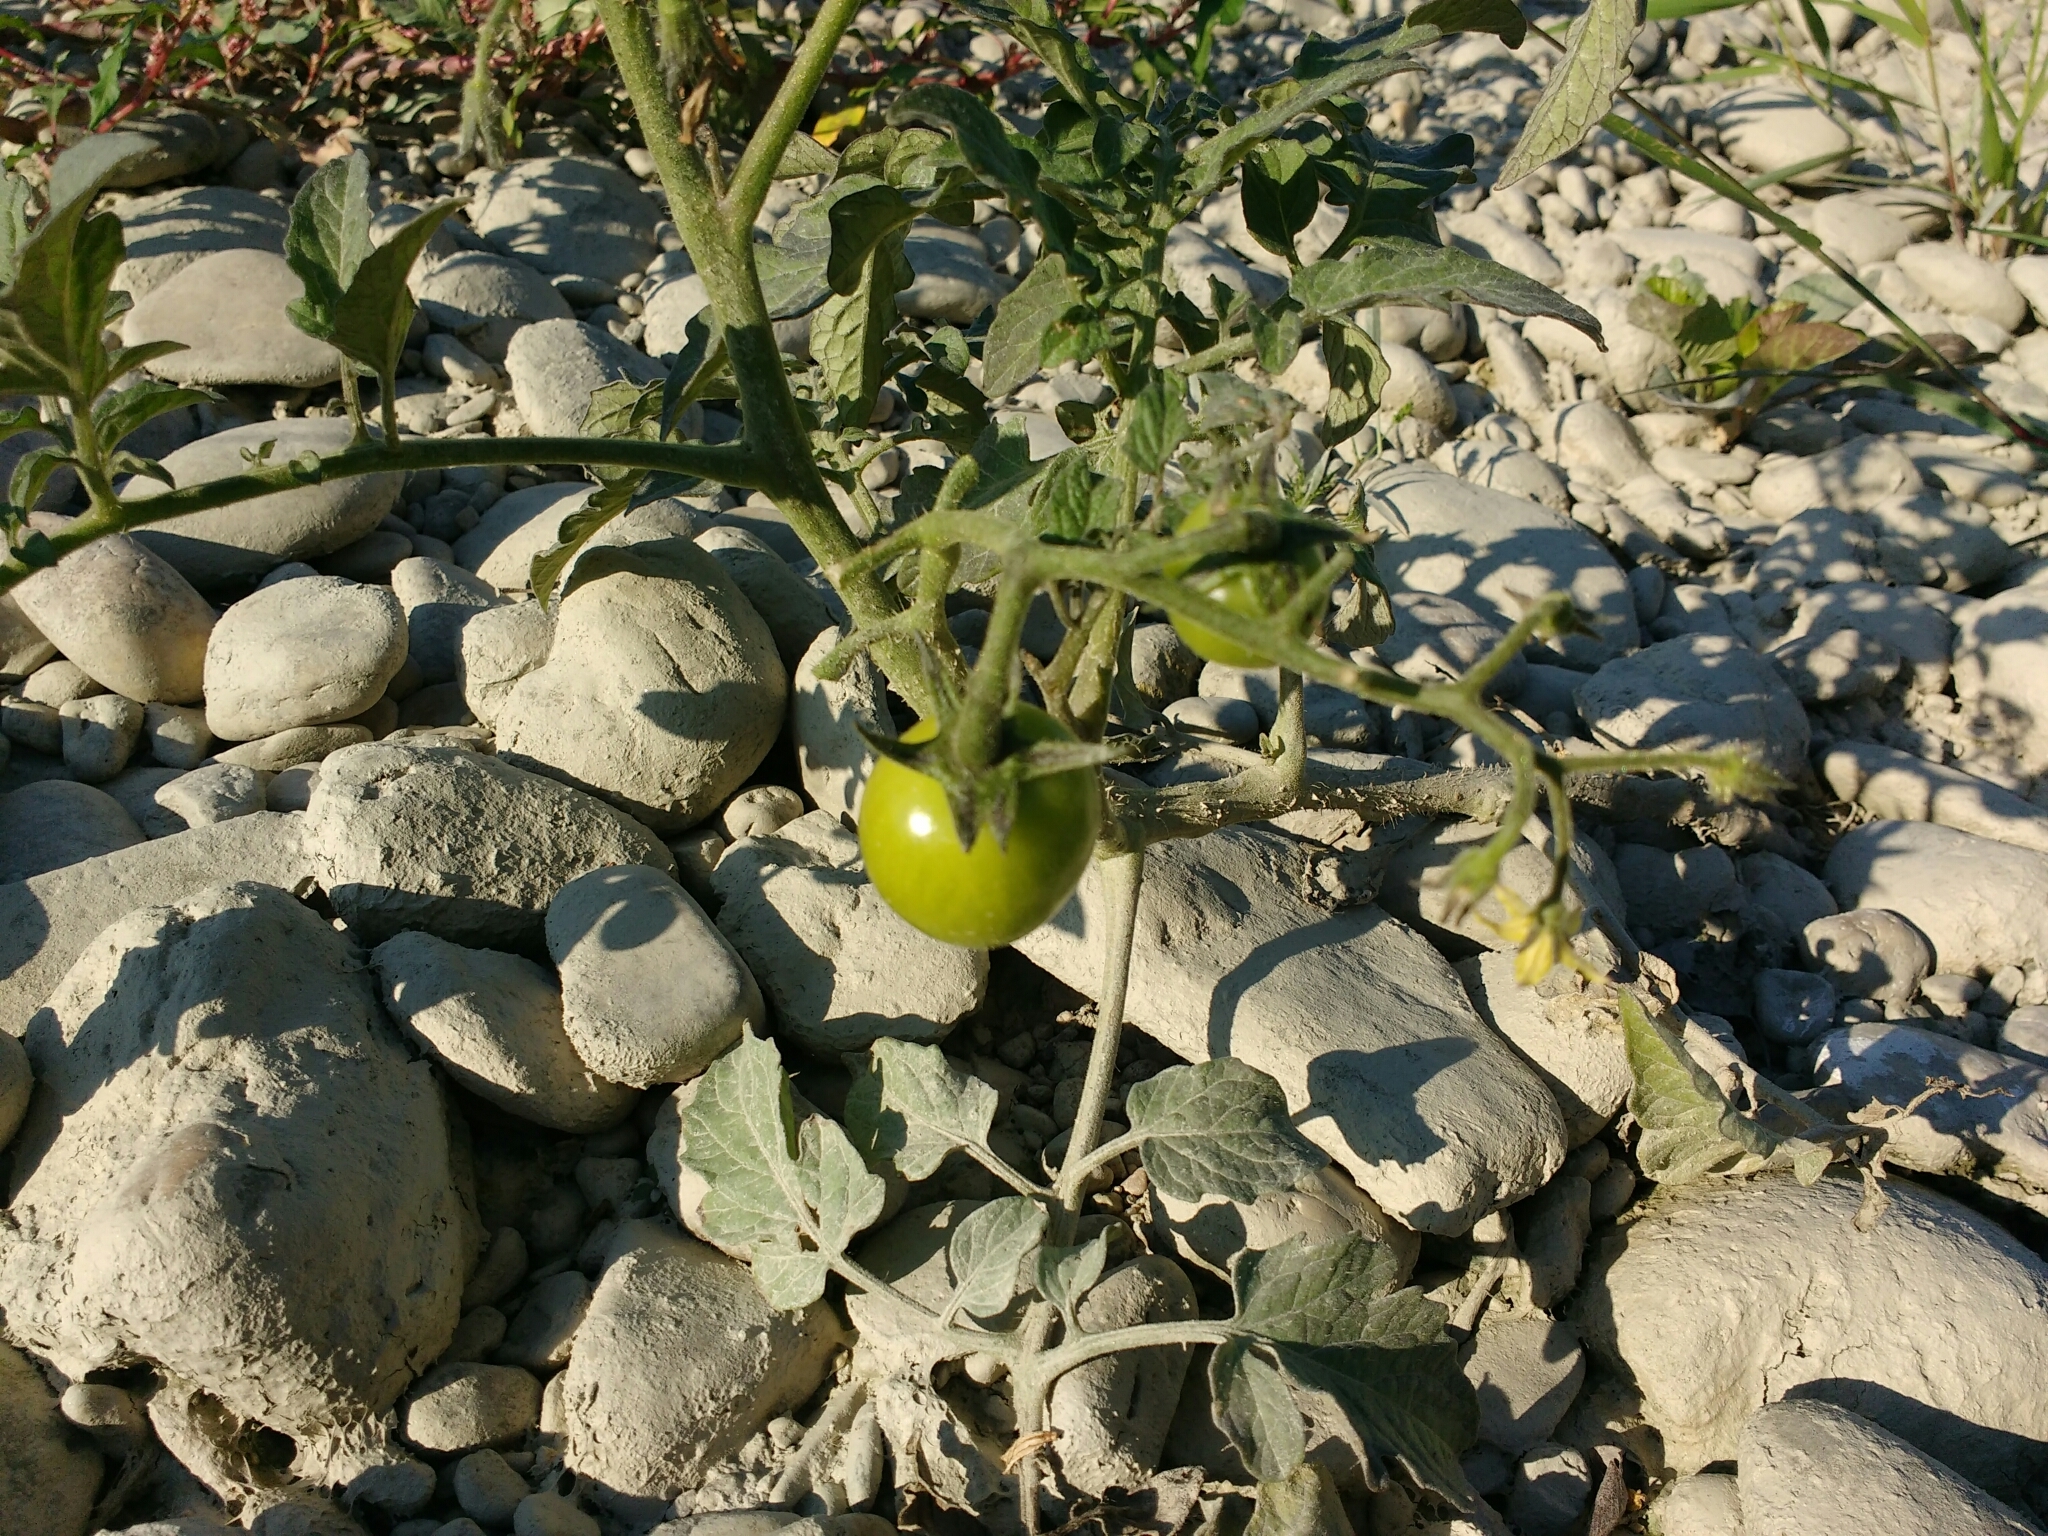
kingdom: Plantae
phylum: Tracheophyta
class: Magnoliopsida
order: Solanales
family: Solanaceae
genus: Solanum
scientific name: Solanum lycopersicum
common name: Garden tomato
